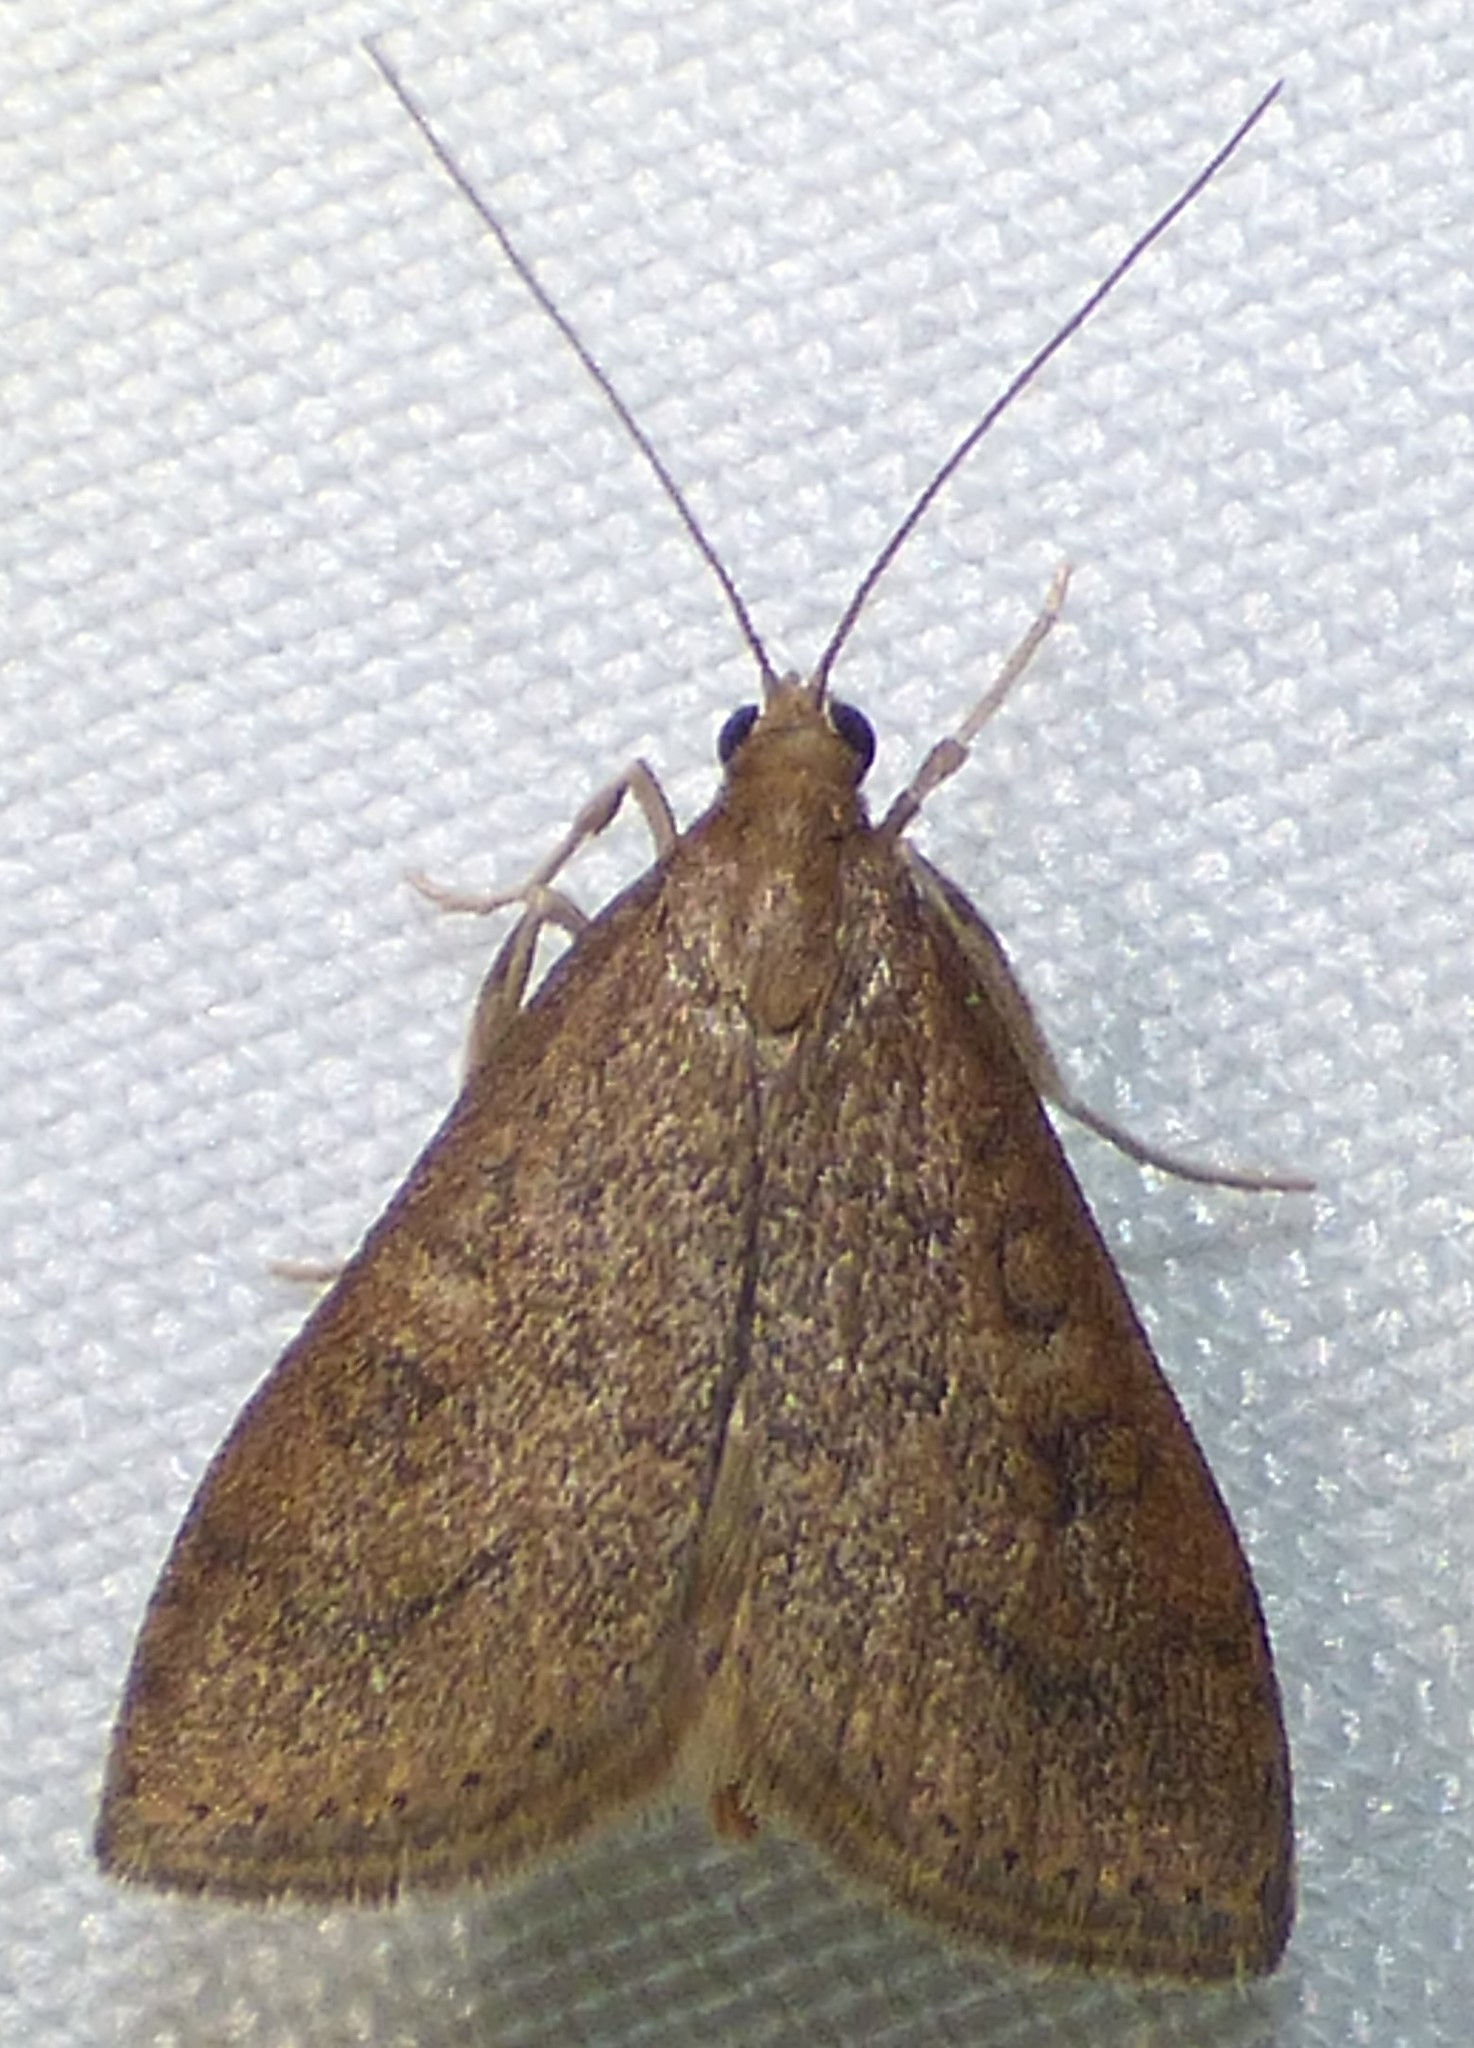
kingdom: Animalia
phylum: Arthropoda
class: Insecta
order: Lepidoptera
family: Crambidae
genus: Udea
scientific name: Udea rubigalis
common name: Celery leaftier moth
